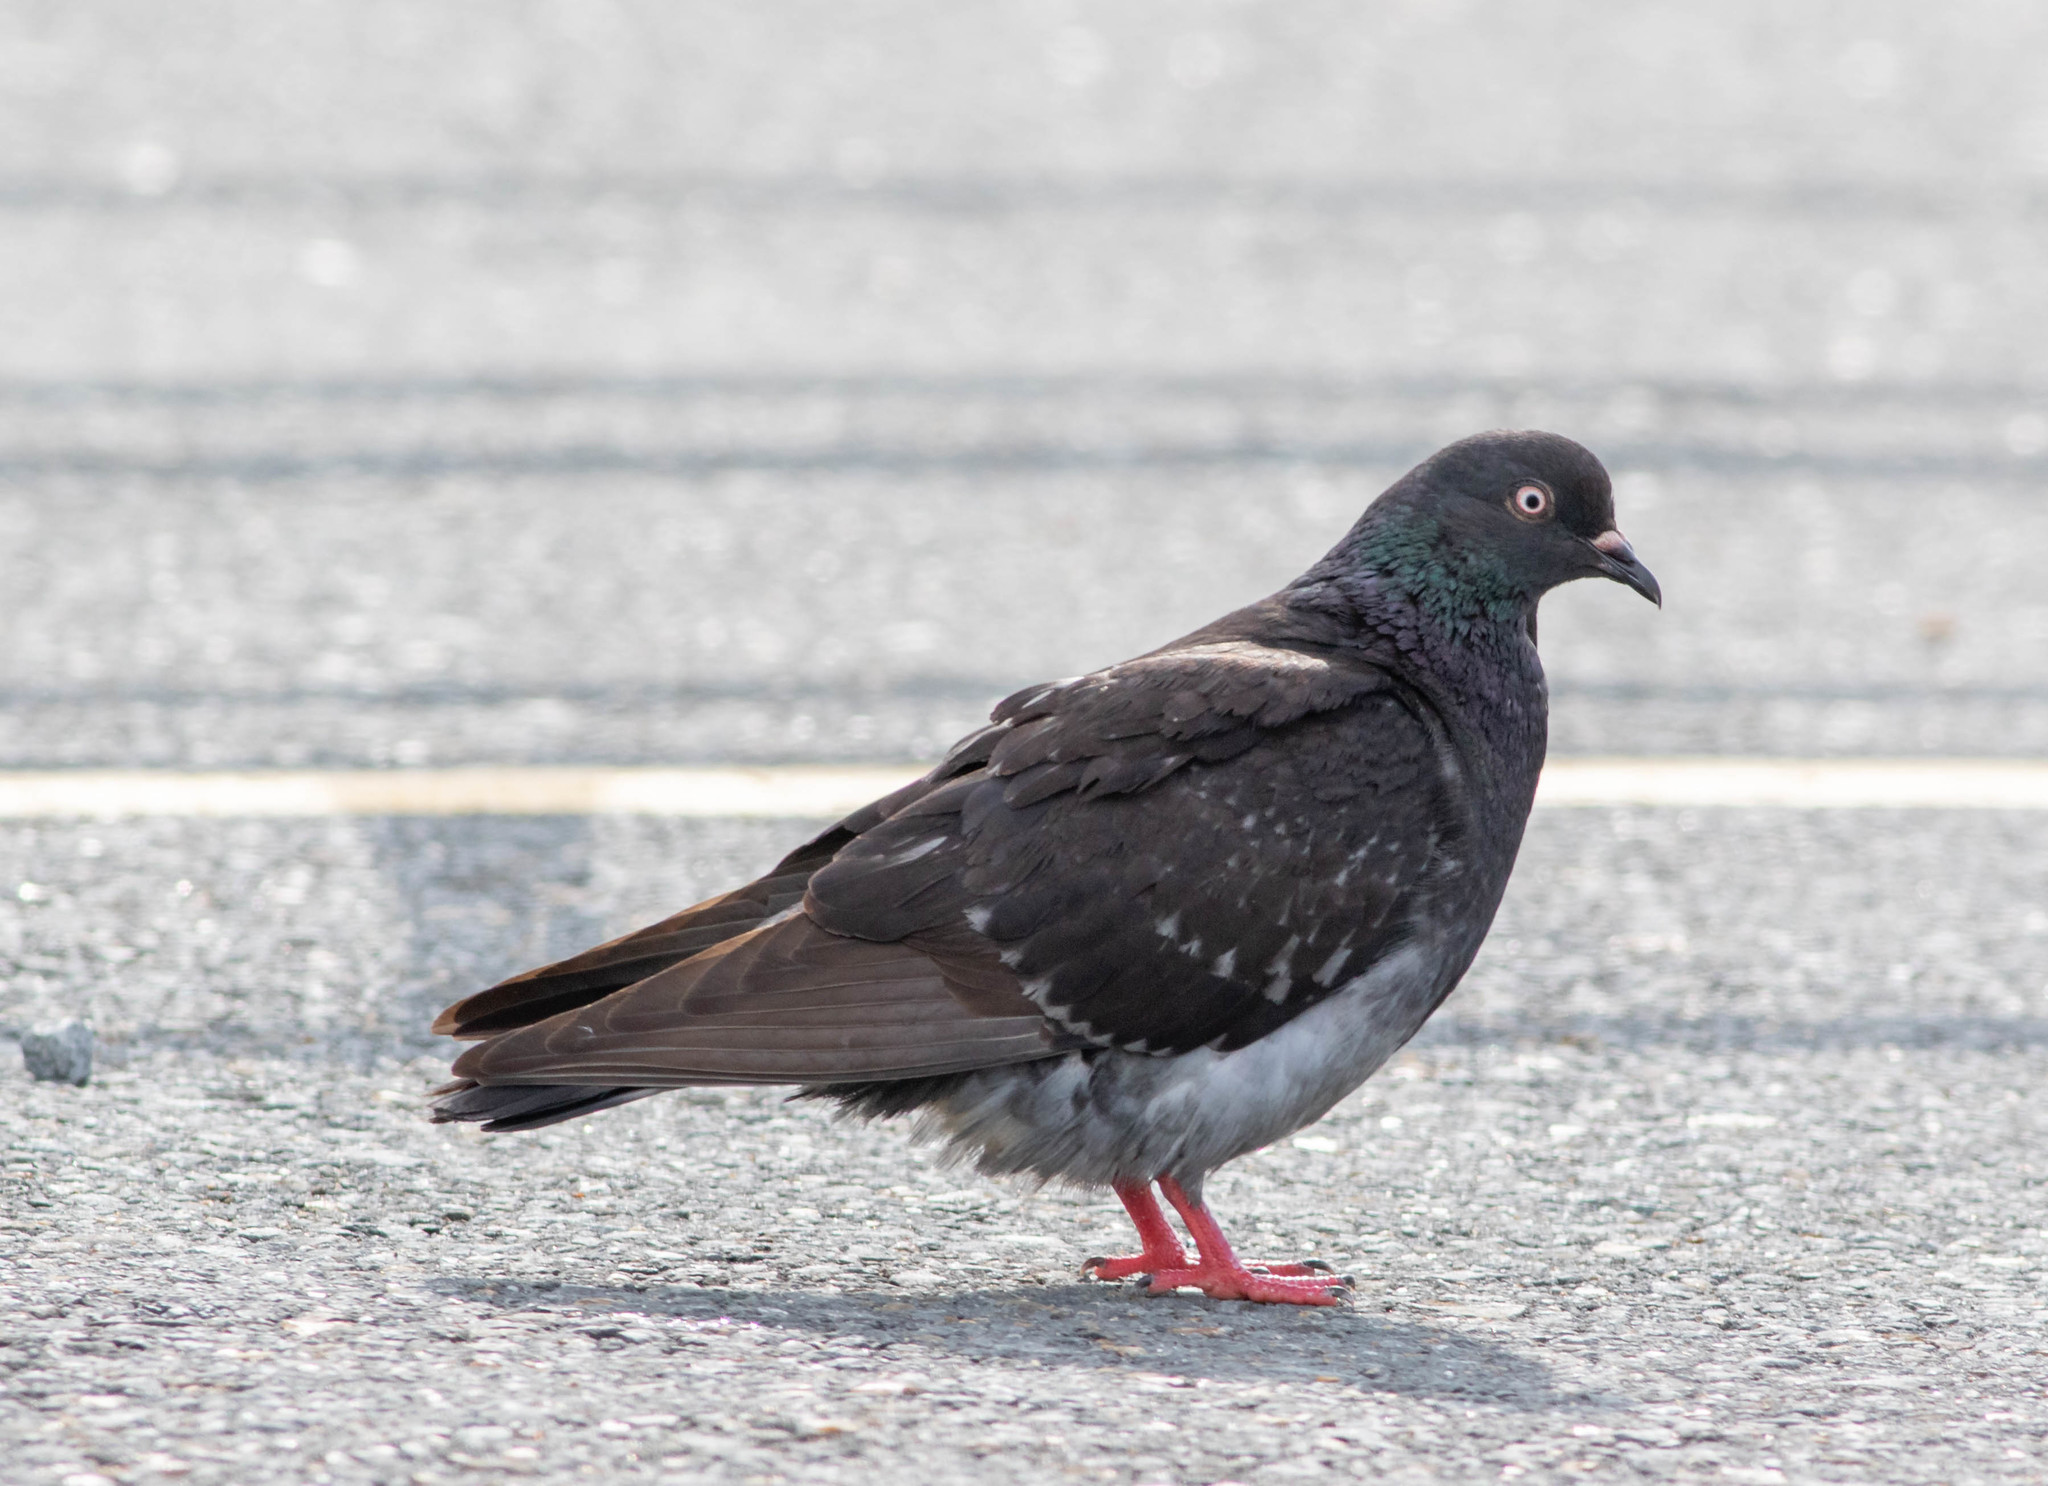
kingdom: Animalia
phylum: Chordata
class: Aves
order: Columbiformes
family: Columbidae
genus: Columba
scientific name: Columba livia
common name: Rock pigeon
